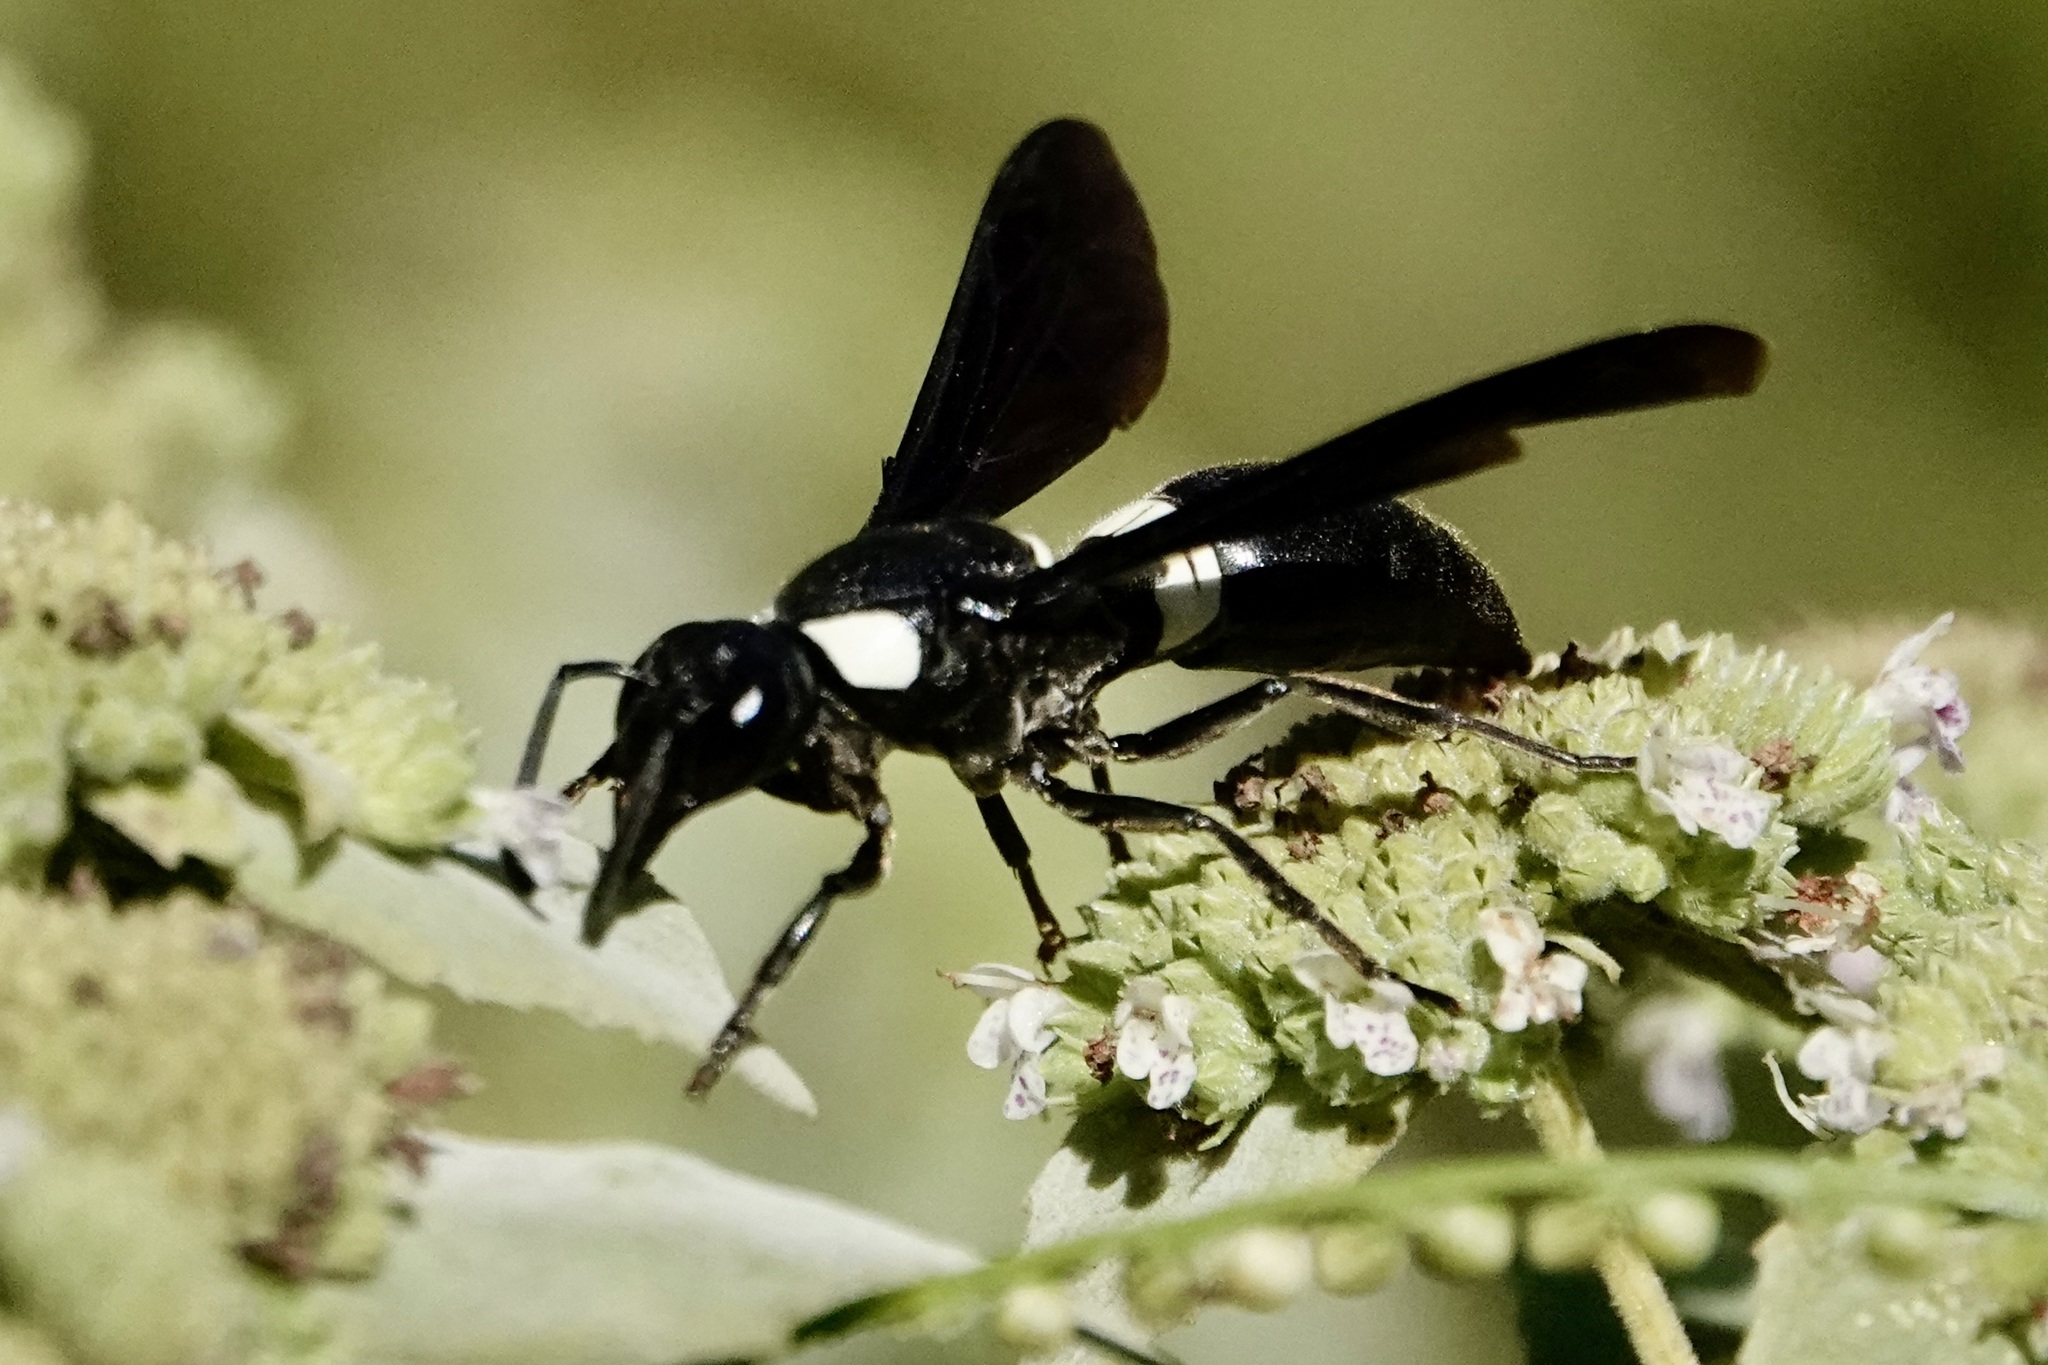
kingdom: Animalia
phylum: Arthropoda
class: Insecta
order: Hymenoptera
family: Eumenidae
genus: Monobia
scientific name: Monobia quadridens
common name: Four-toothed mason wasp
